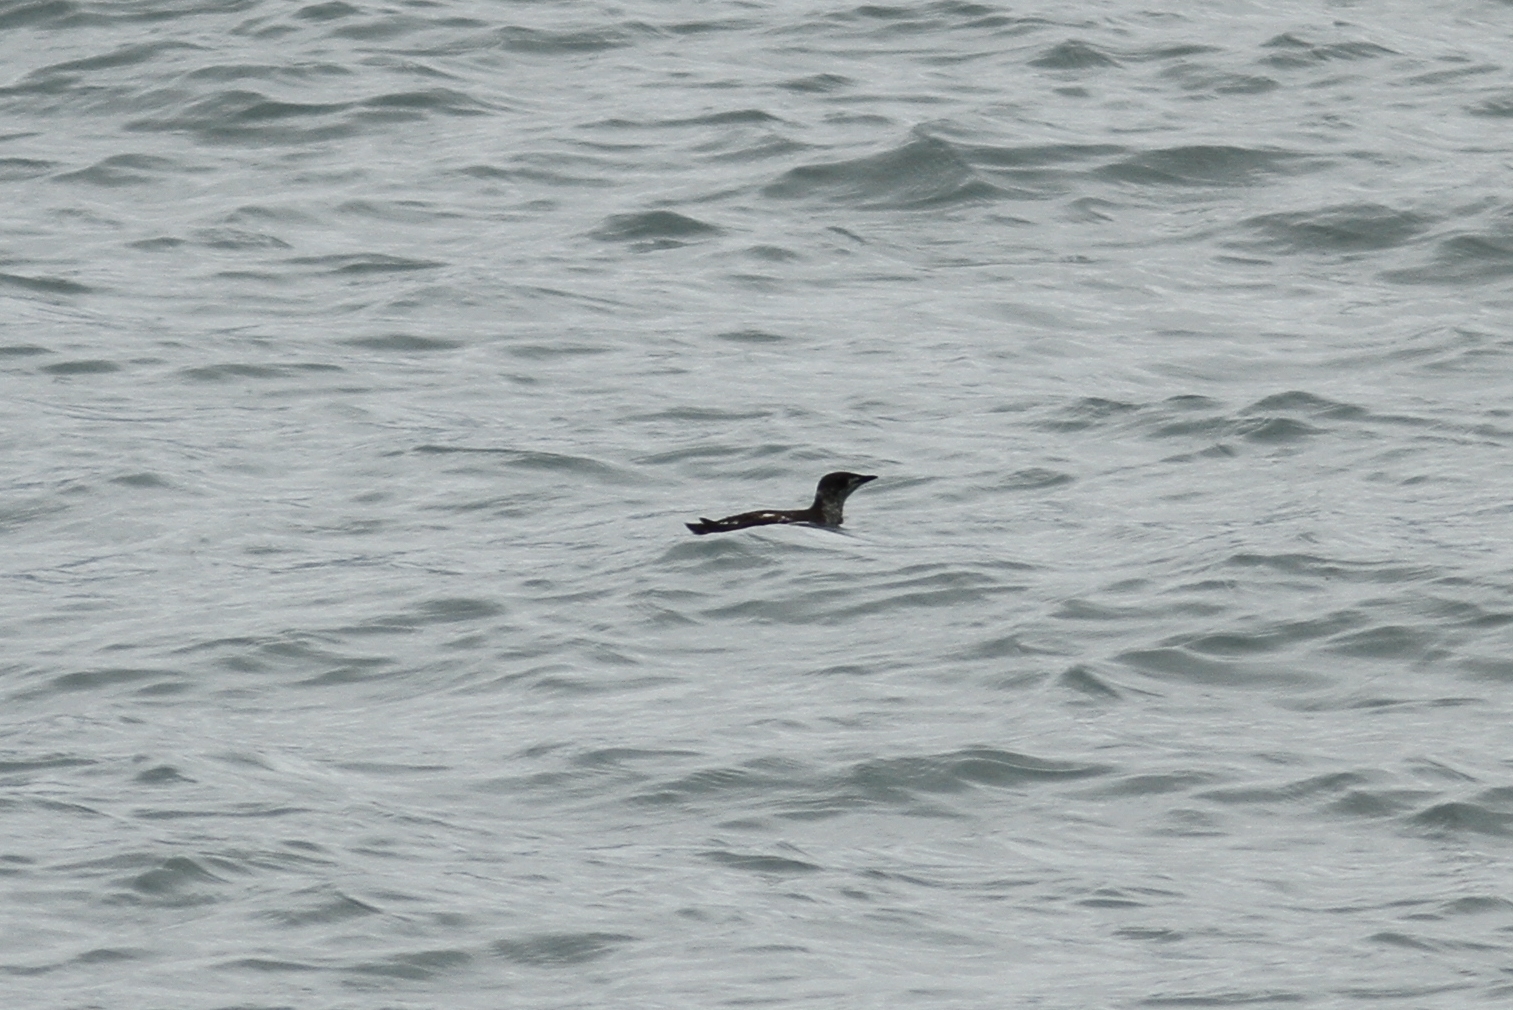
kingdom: Animalia
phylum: Chordata
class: Aves
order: Charadriiformes
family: Alcidae
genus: Brachyramphus
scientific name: Brachyramphus marmoratus
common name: Marbled murrelet
